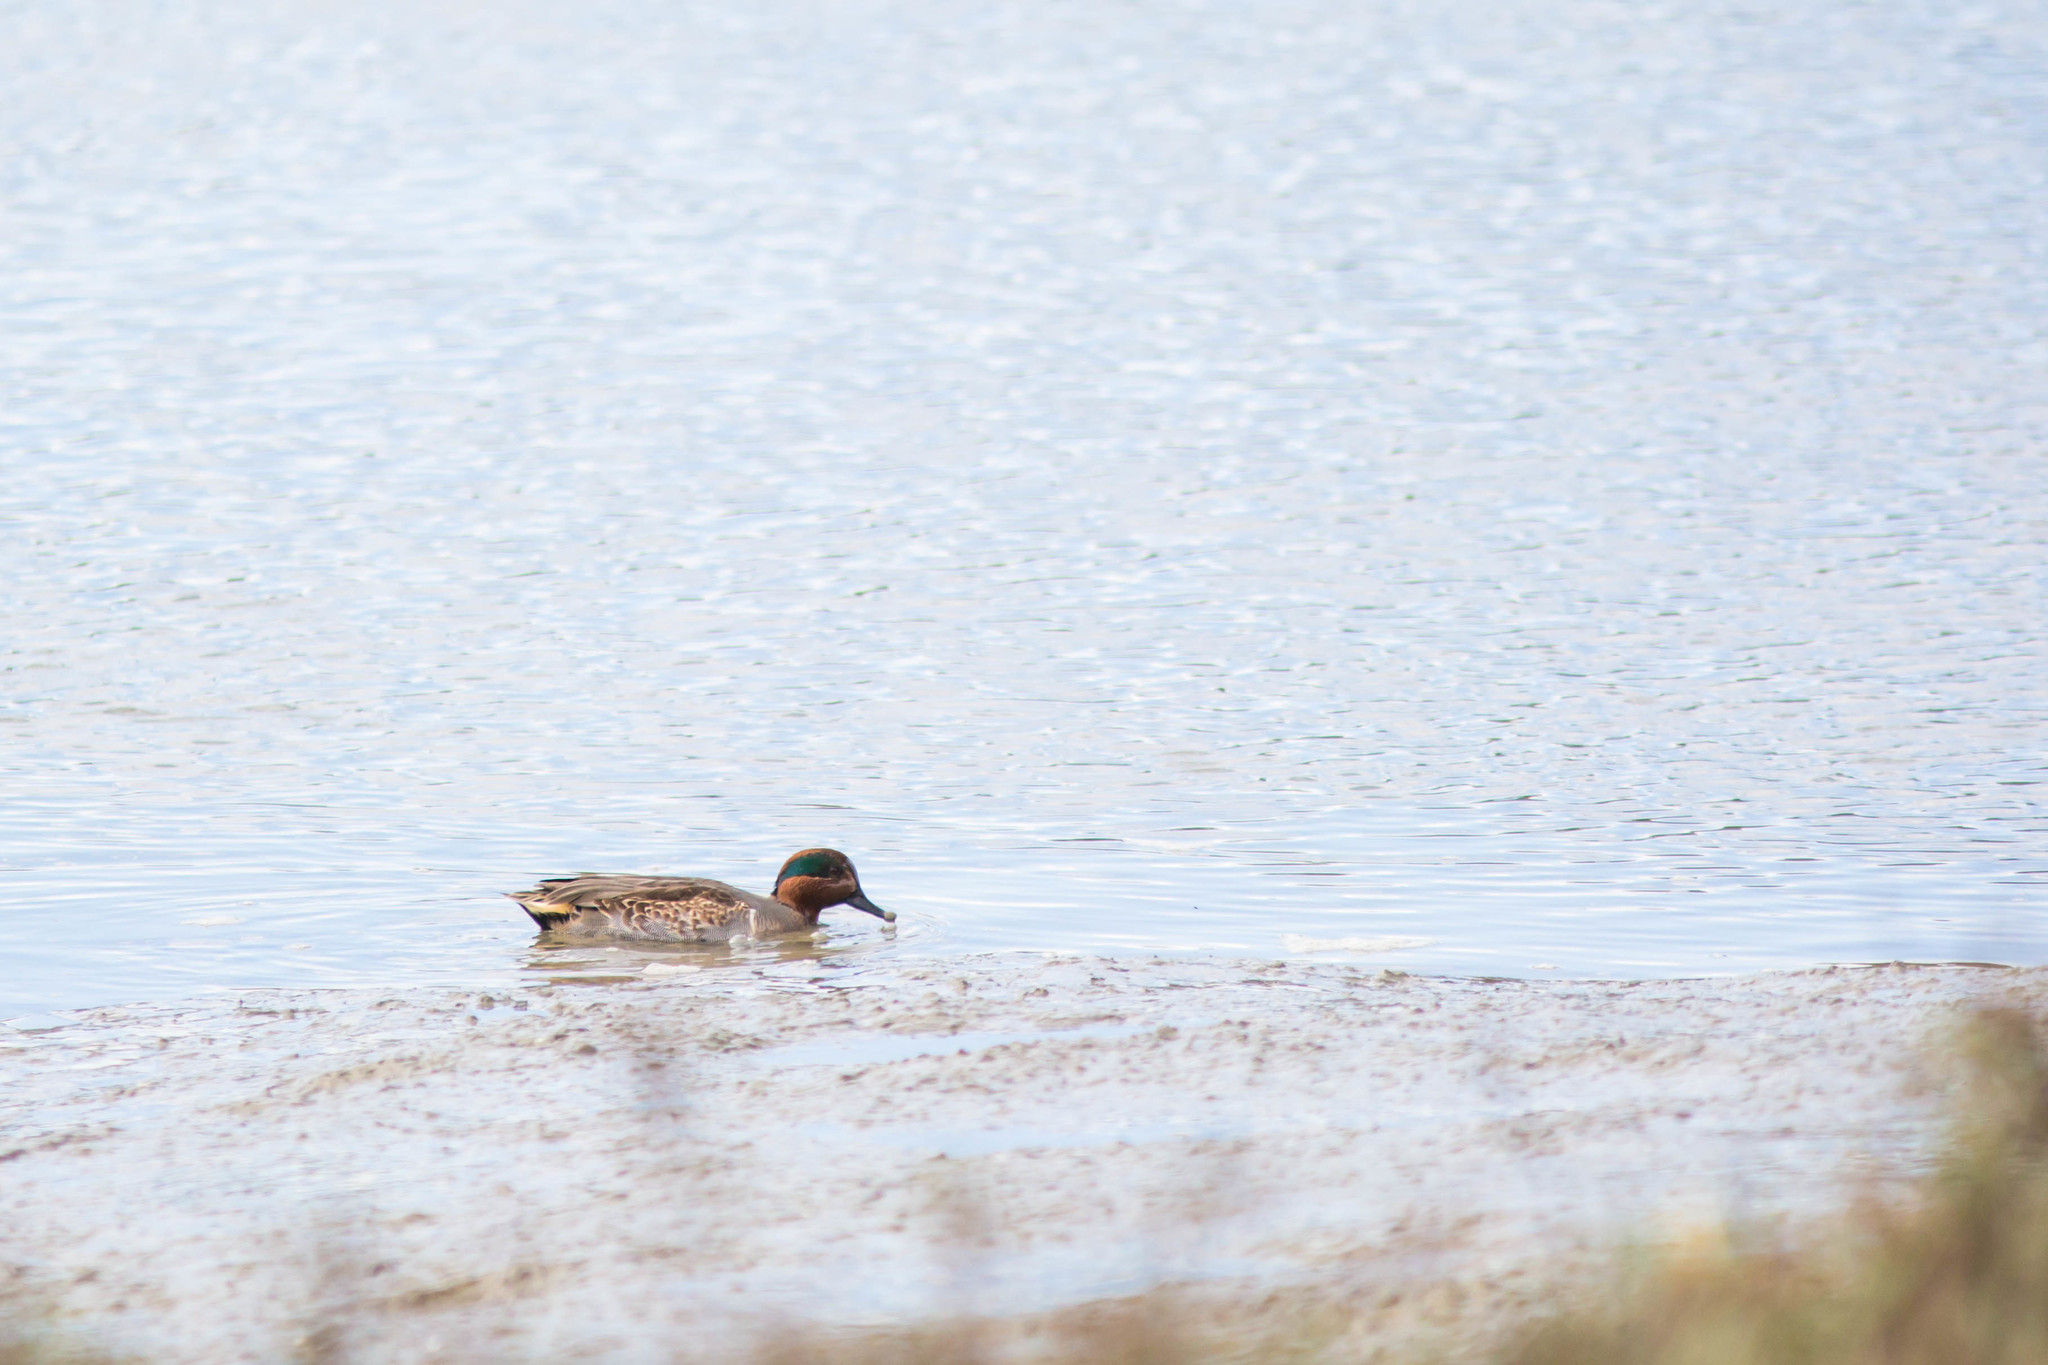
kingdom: Animalia
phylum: Chordata
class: Aves
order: Anseriformes
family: Anatidae
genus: Anas
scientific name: Anas crecca
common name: Eurasian teal
